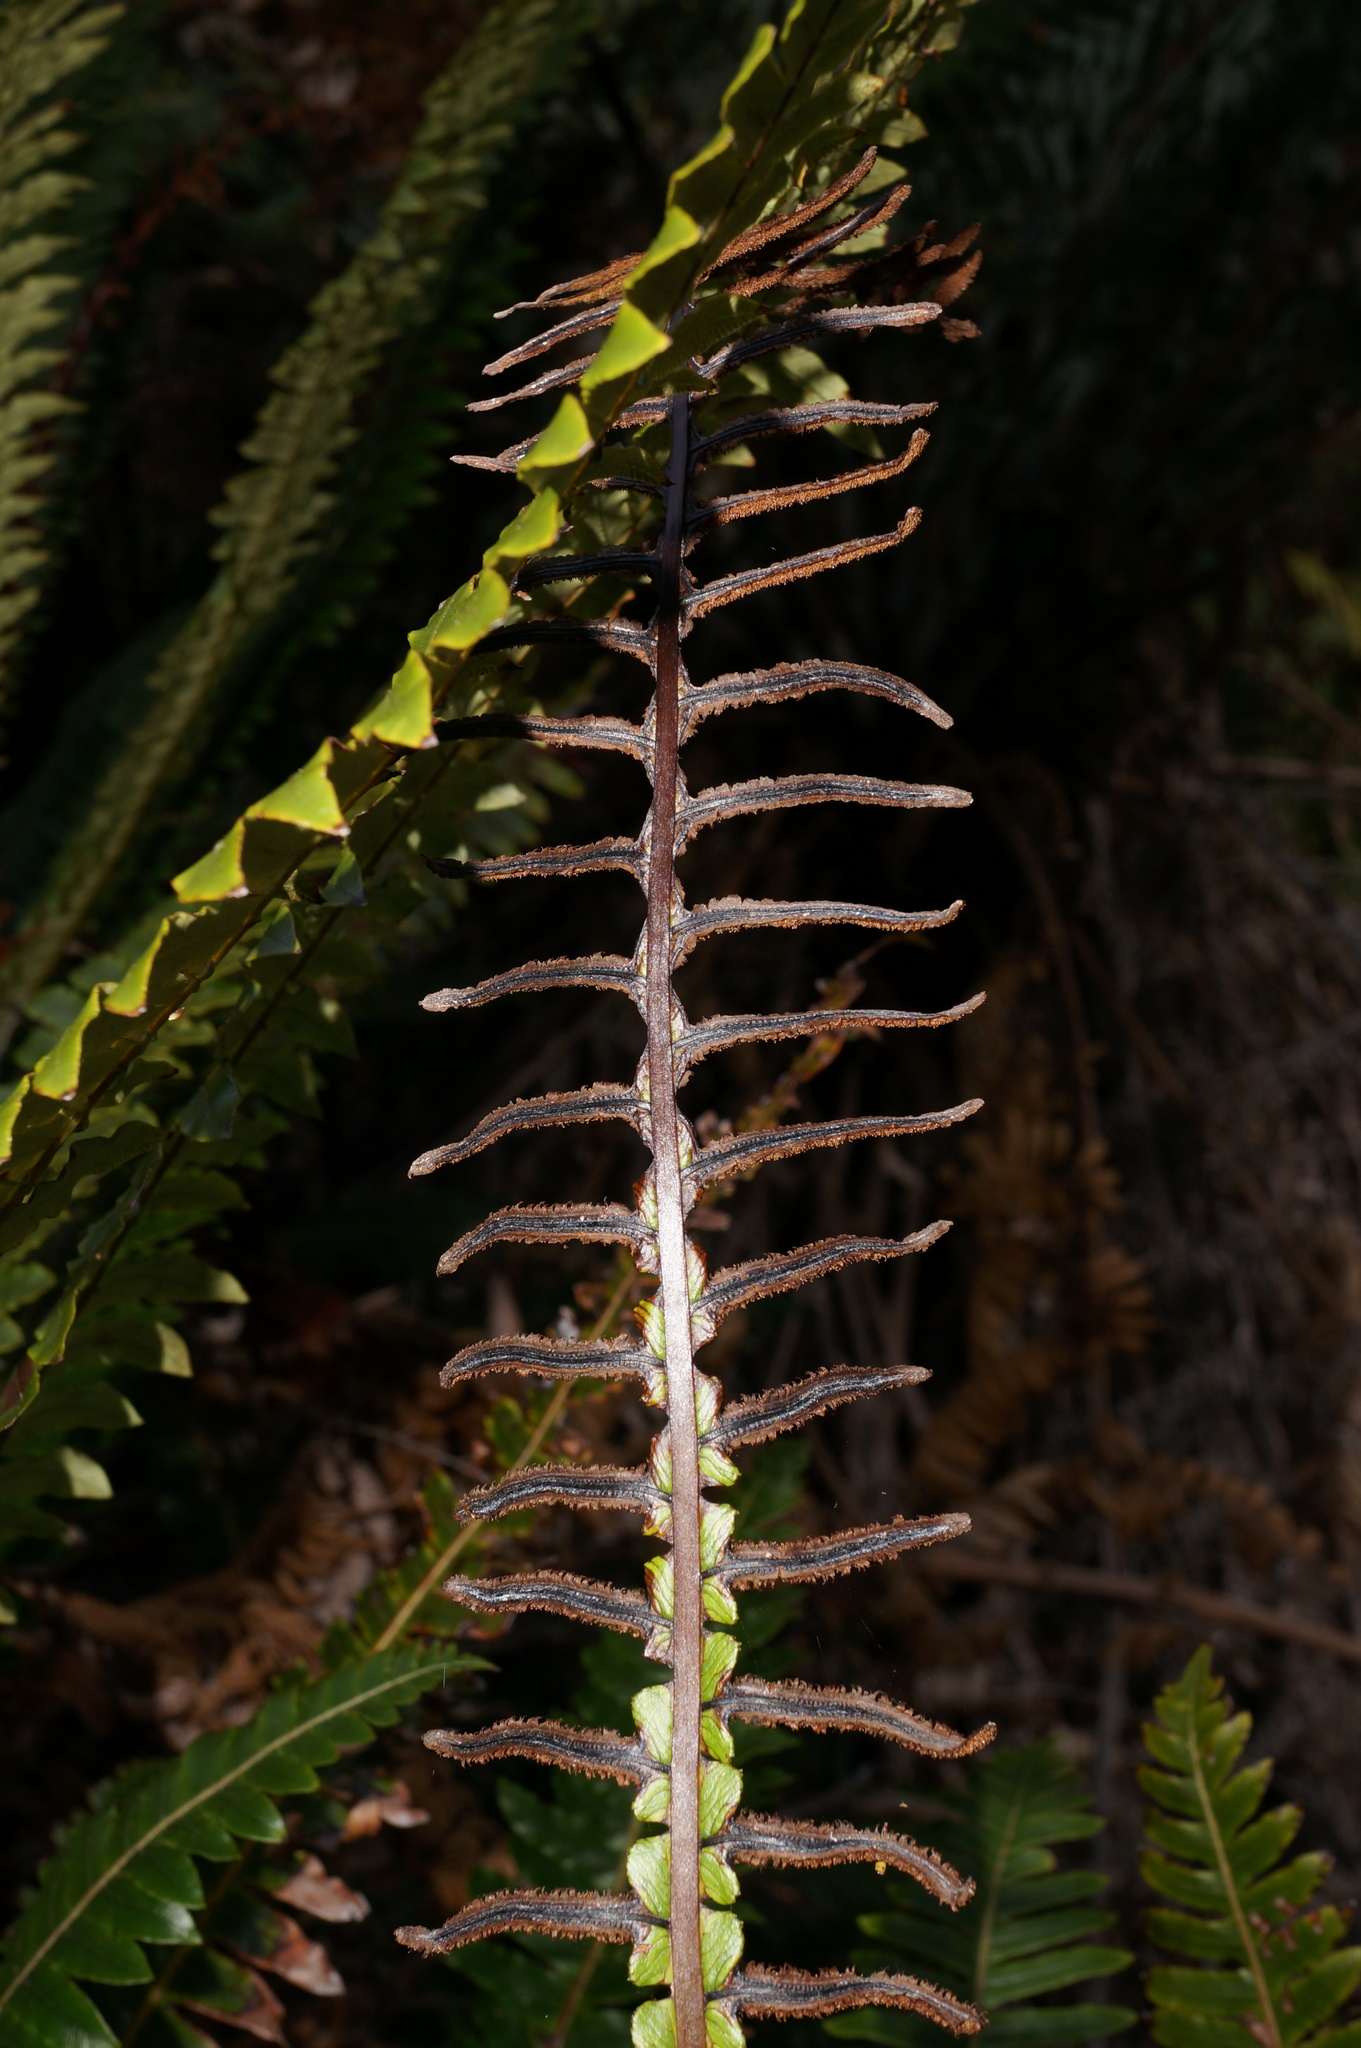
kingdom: Plantae
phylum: Tracheophyta
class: Polypodiopsida
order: Polypodiales
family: Blechnaceae
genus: Lomaria
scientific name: Lomaria discolor
